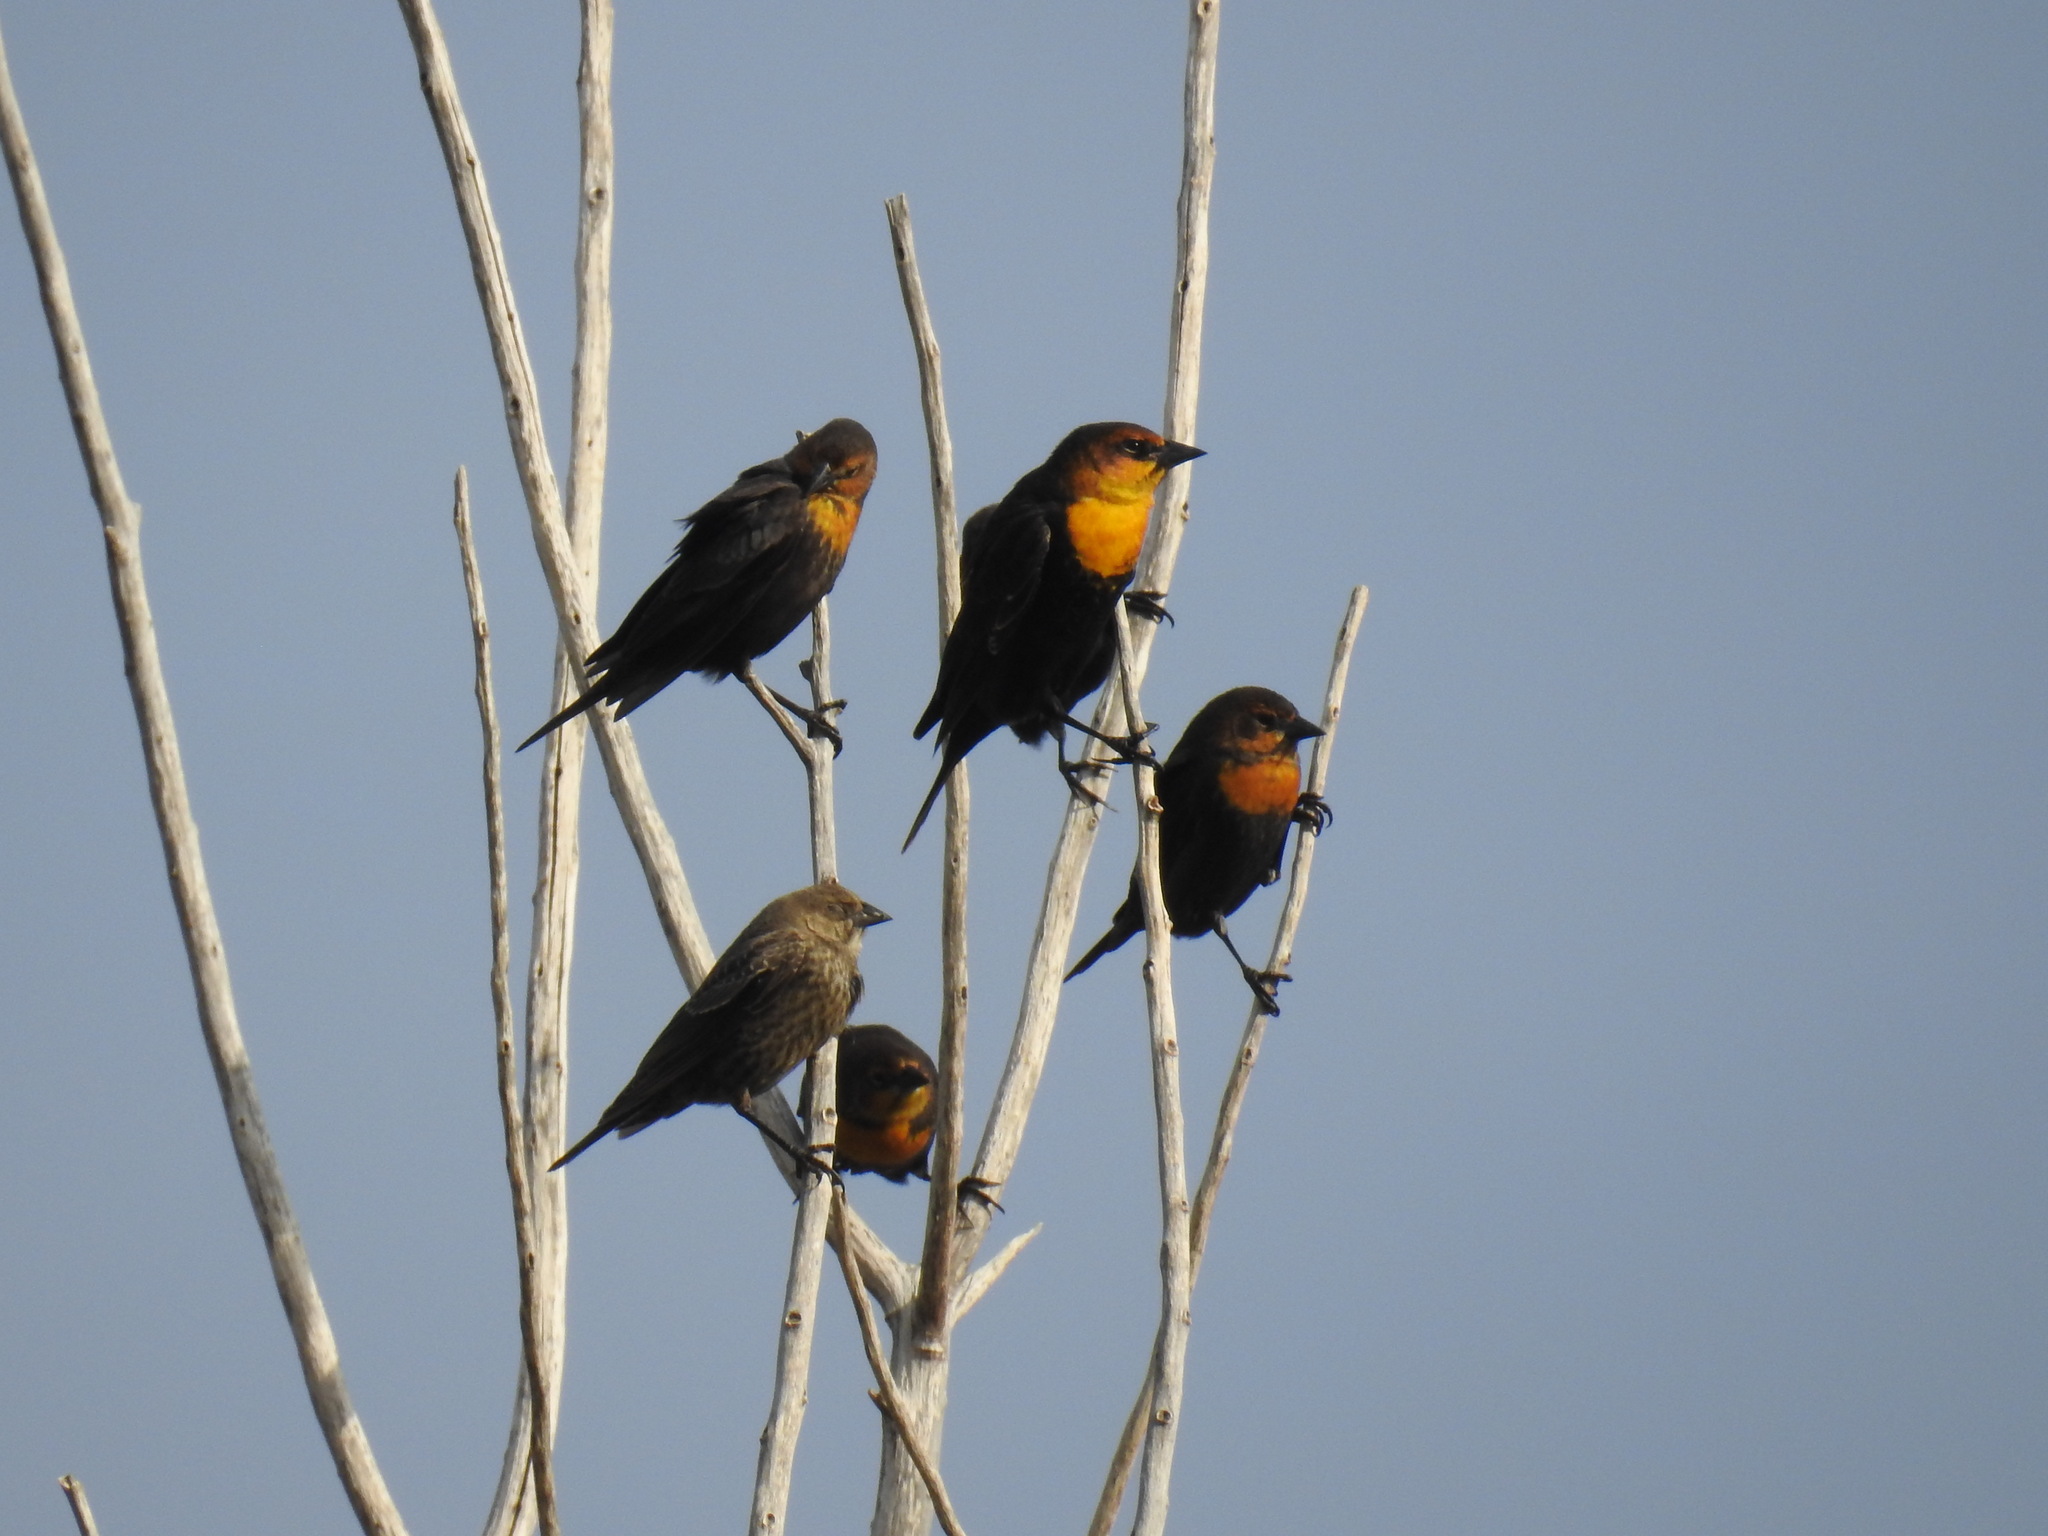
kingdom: Animalia
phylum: Chordata
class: Aves
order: Passeriformes
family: Icteridae
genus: Xanthocephalus
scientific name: Xanthocephalus xanthocephalus
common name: Yellow-headed blackbird
